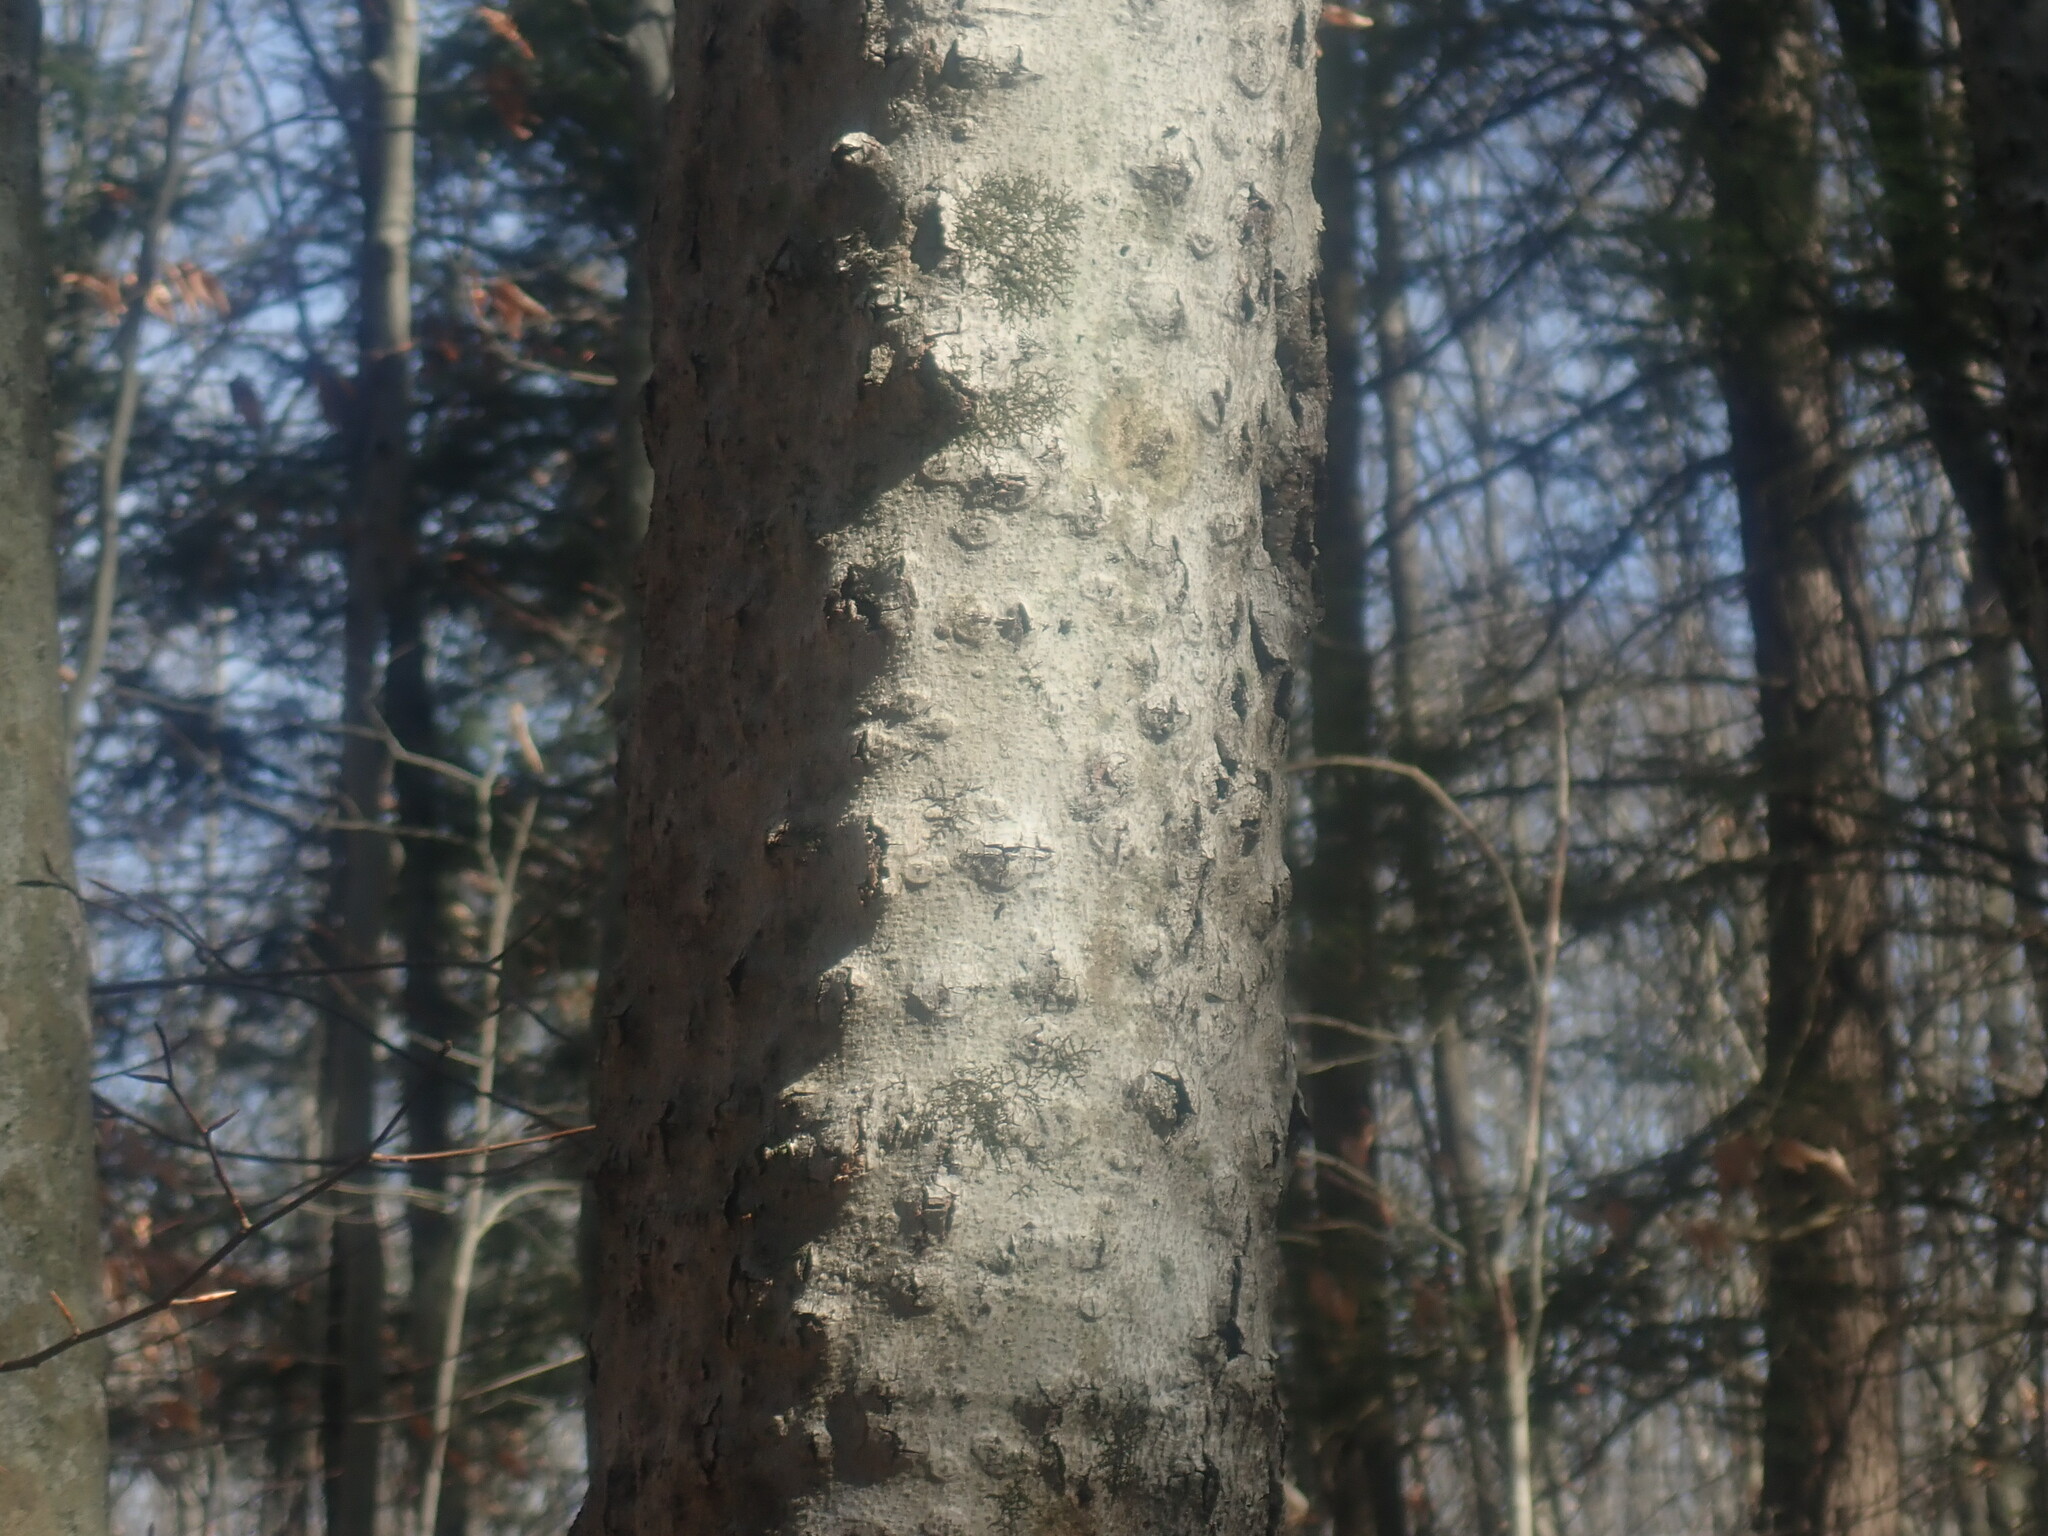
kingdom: Fungi
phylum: Ascomycota
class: Sordariomycetes
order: Hypocreales
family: Nectriaceae
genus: Neonectria
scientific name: Neonectria faginata
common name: Beech bark canker
